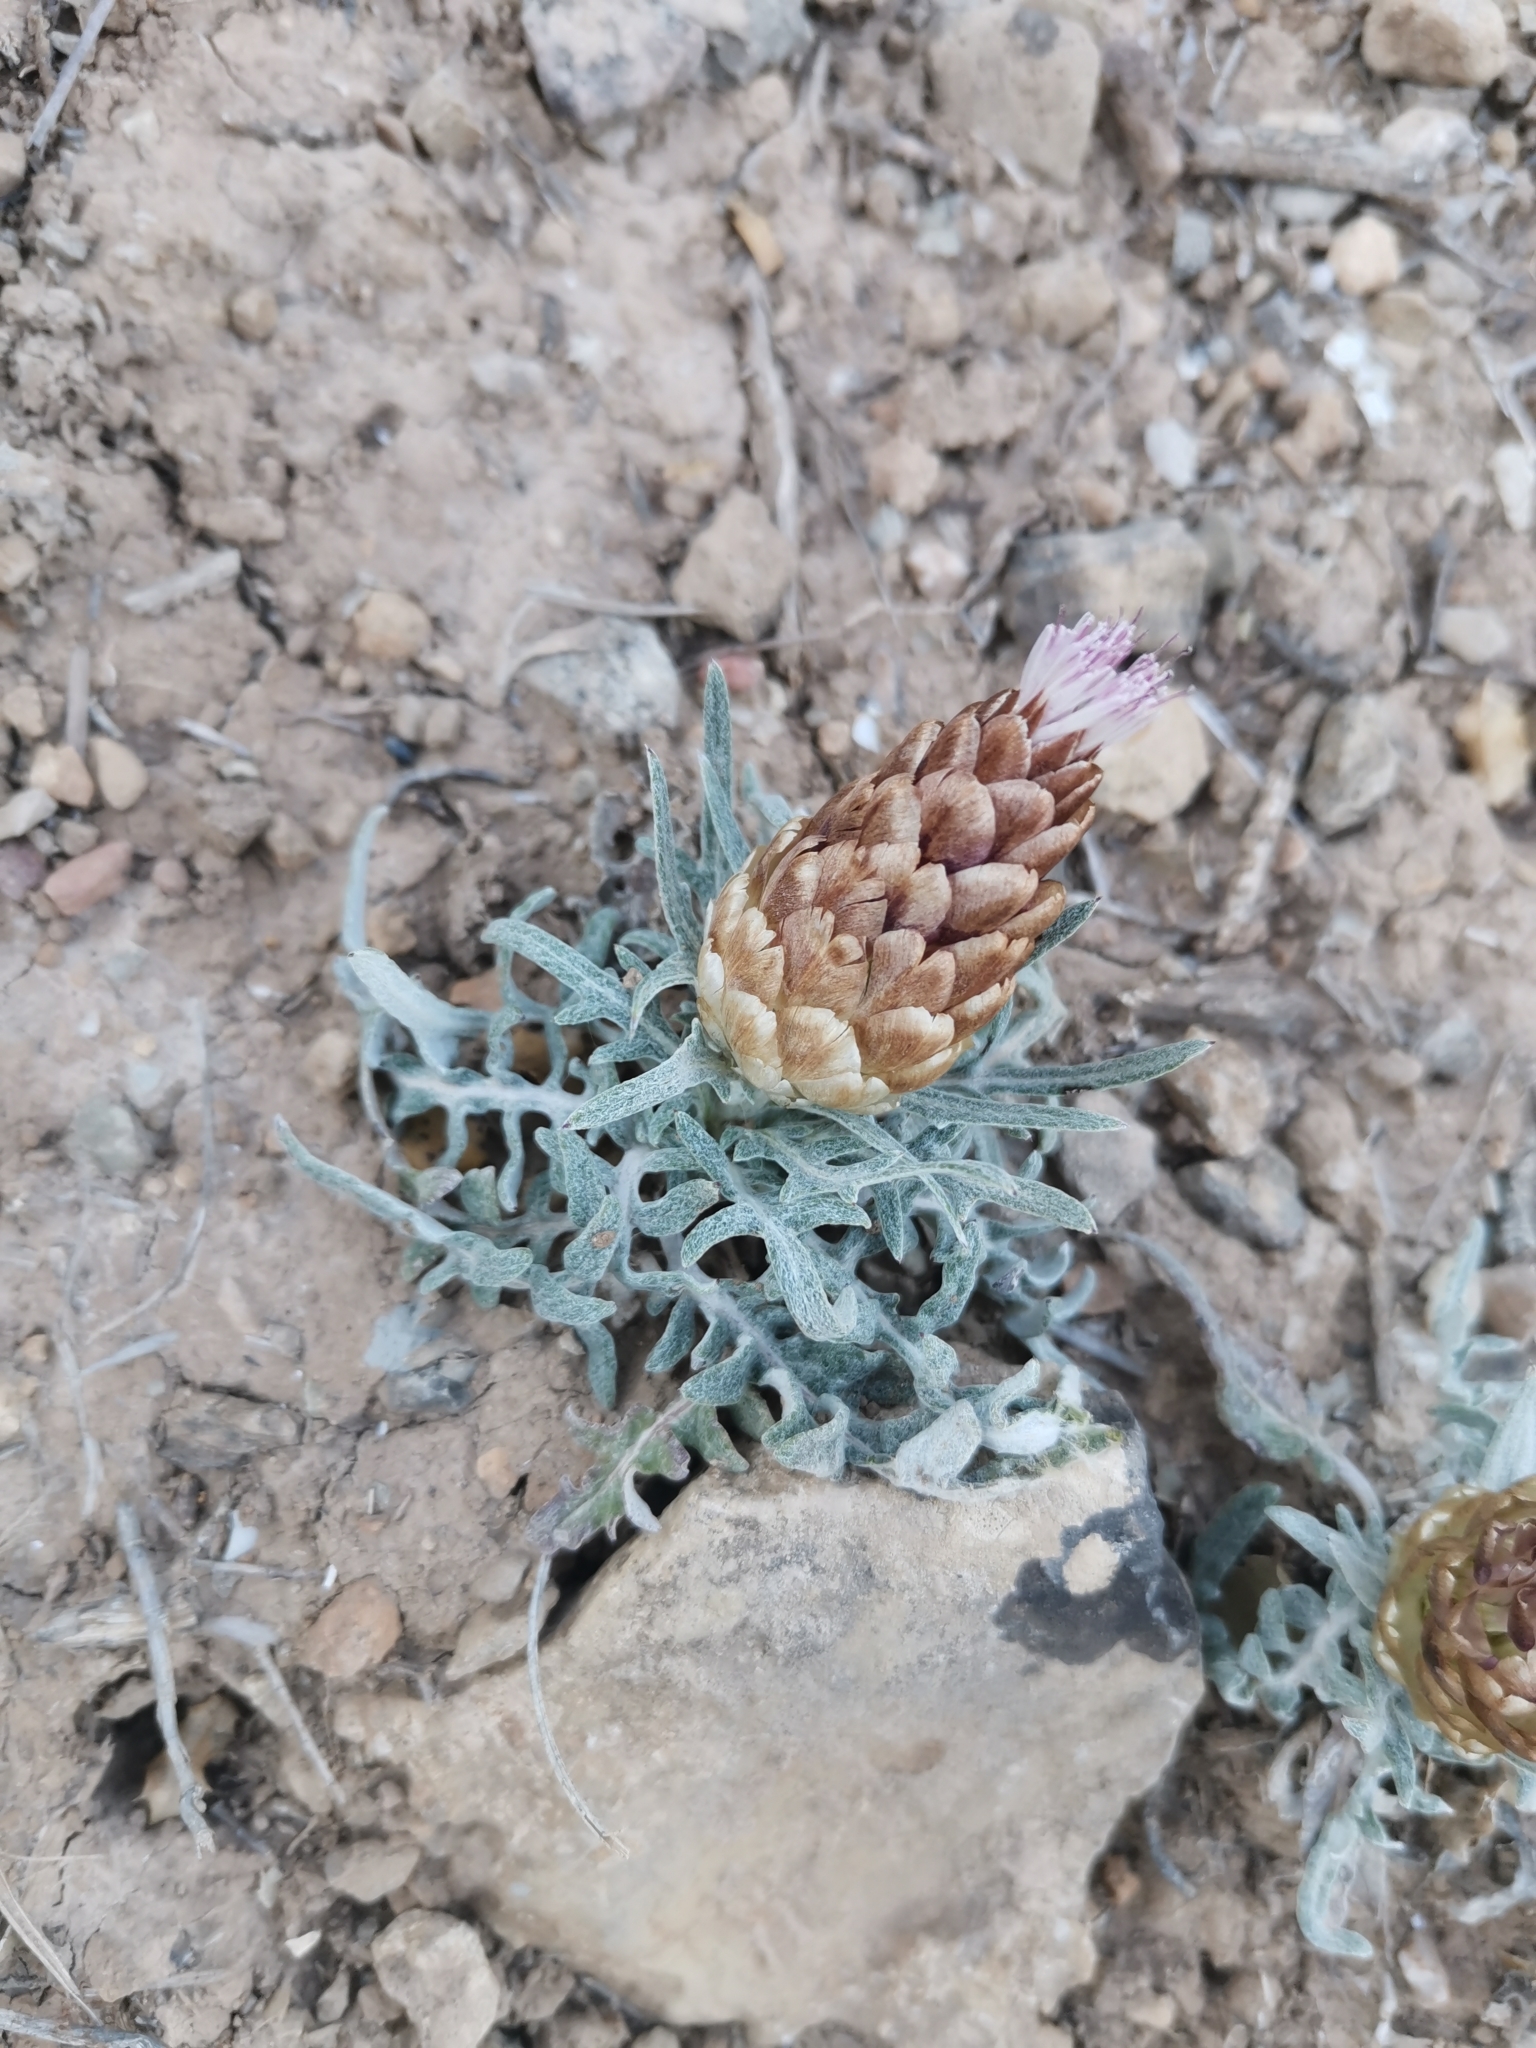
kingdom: Plantae
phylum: Tracheophyta
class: Magnoliopsida
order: Asterales
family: Asteraceae
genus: Leuzea
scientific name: Leuzea conifera
